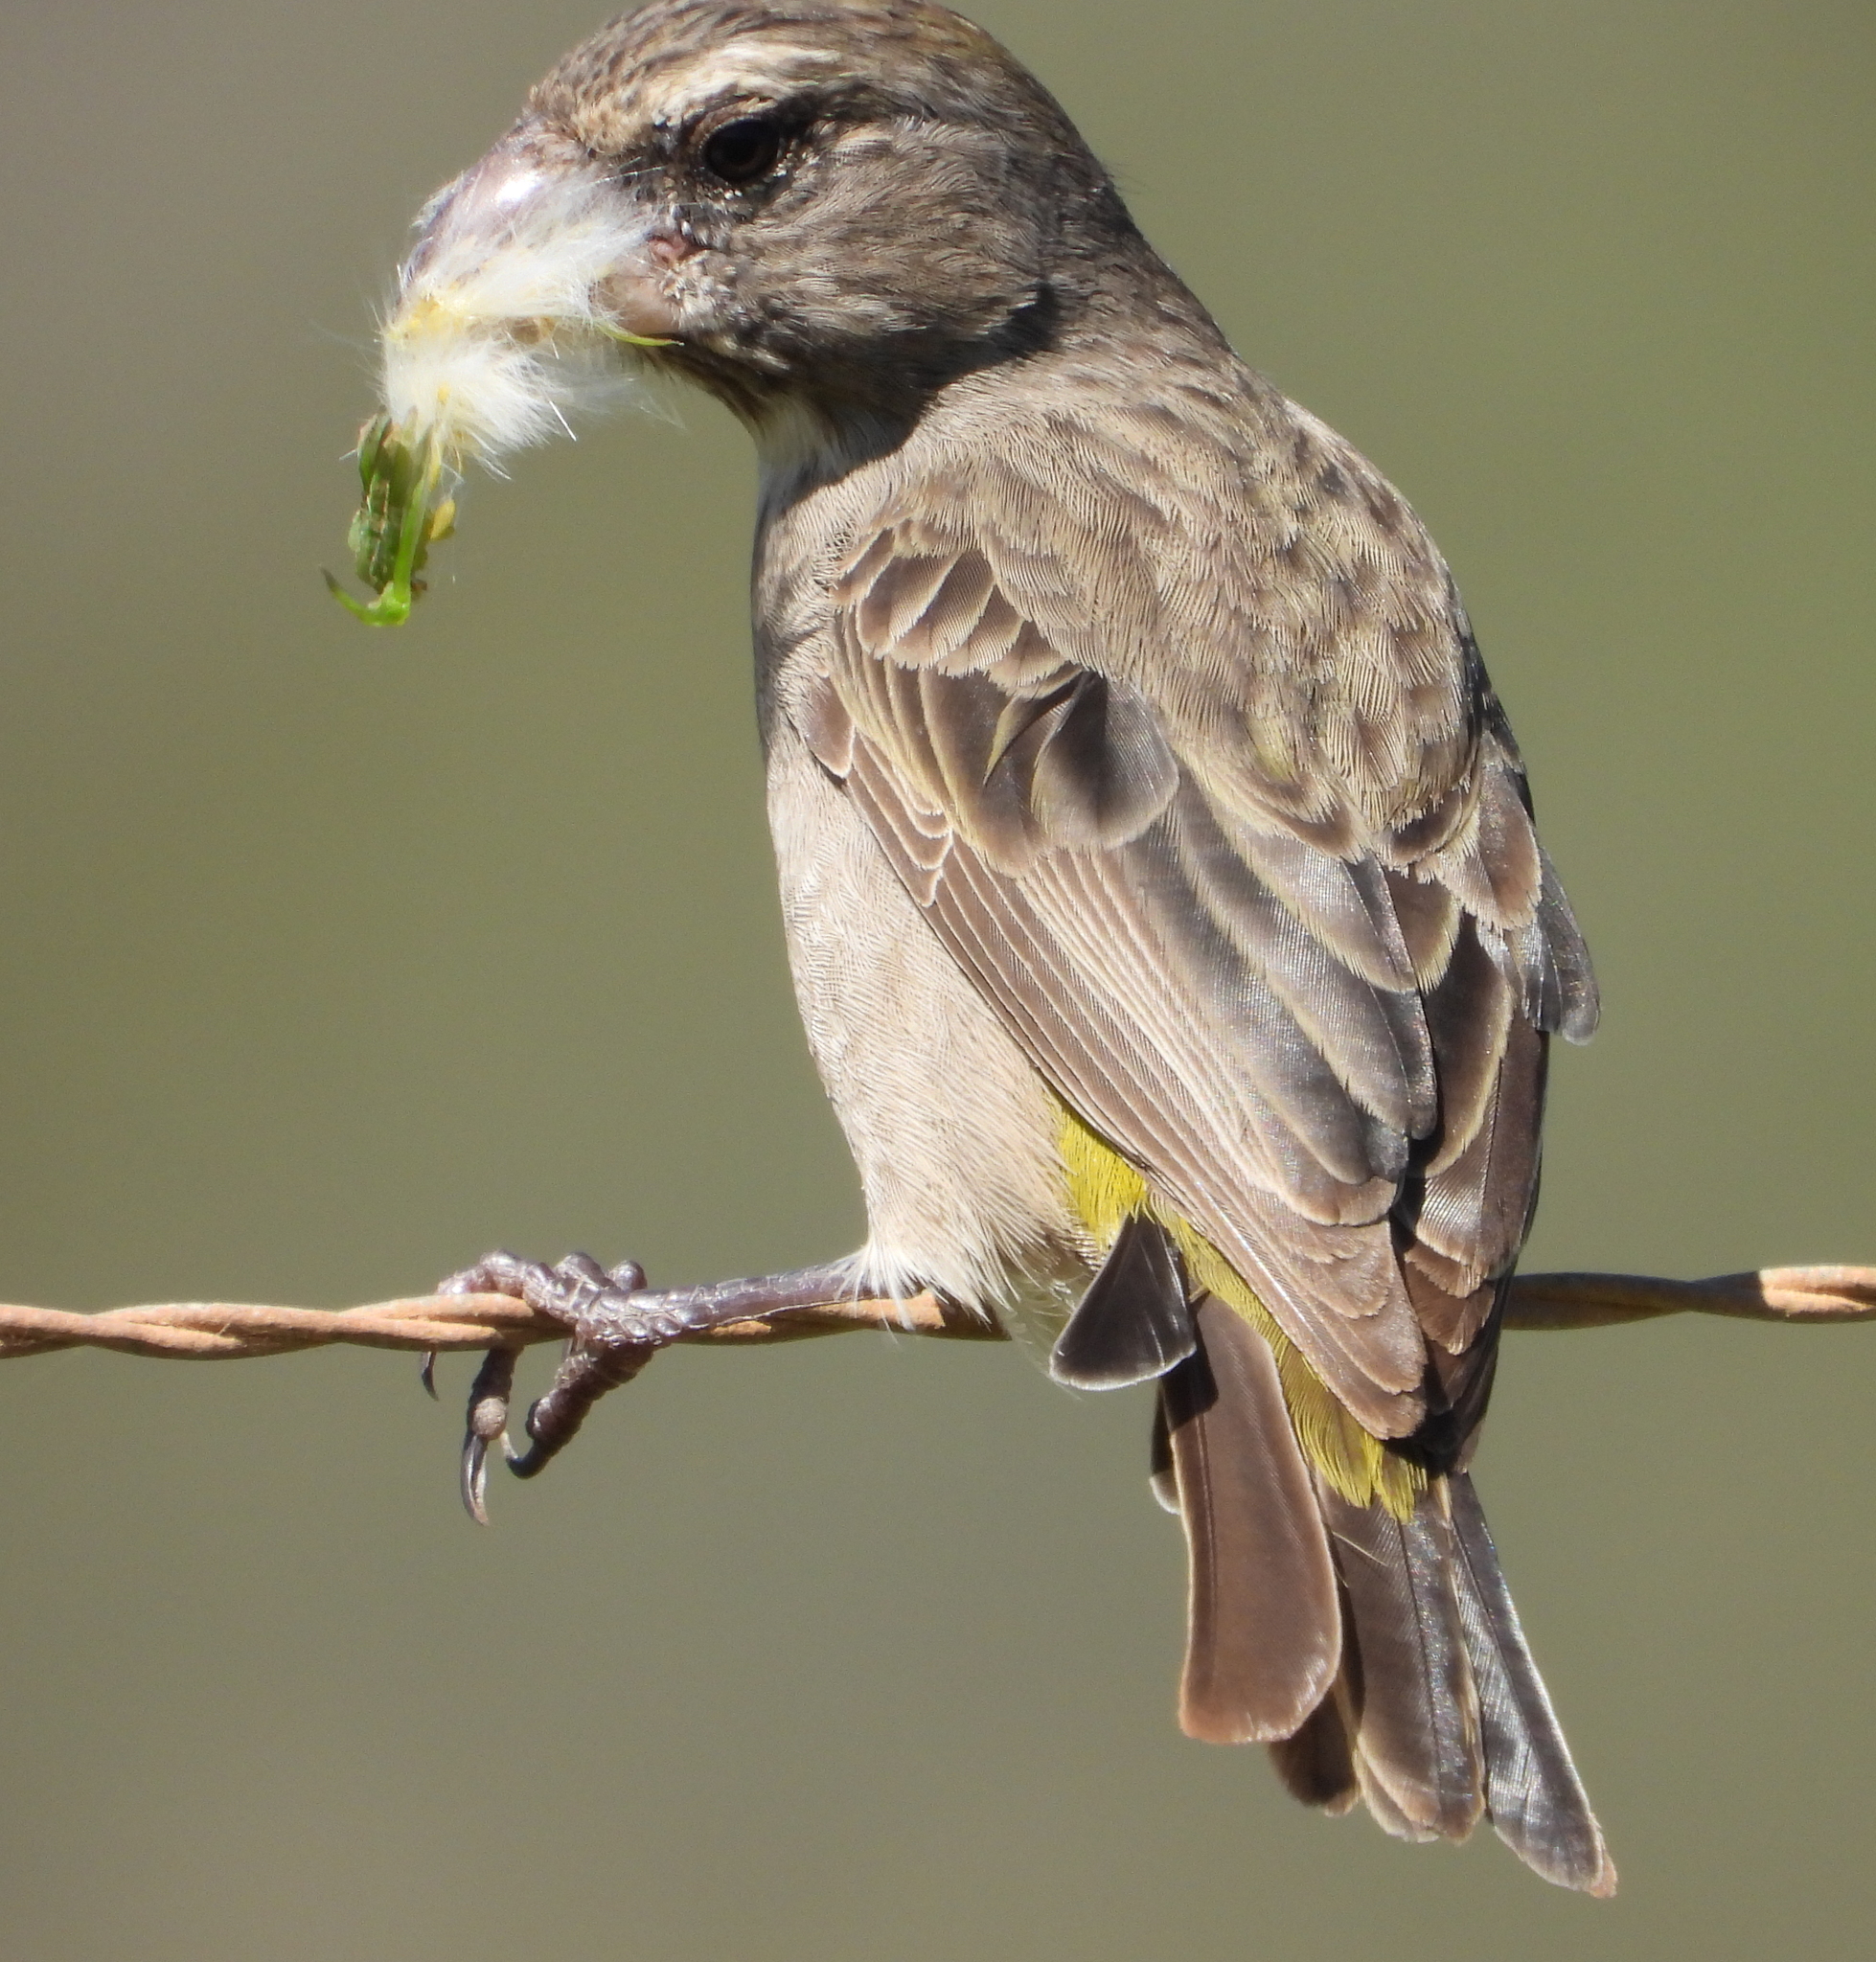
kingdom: Animalia
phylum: Chordata
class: Aves
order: Passeriformes
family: Fringillidae
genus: Crithagra
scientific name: Crithagra albogularis
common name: White-throated canary
